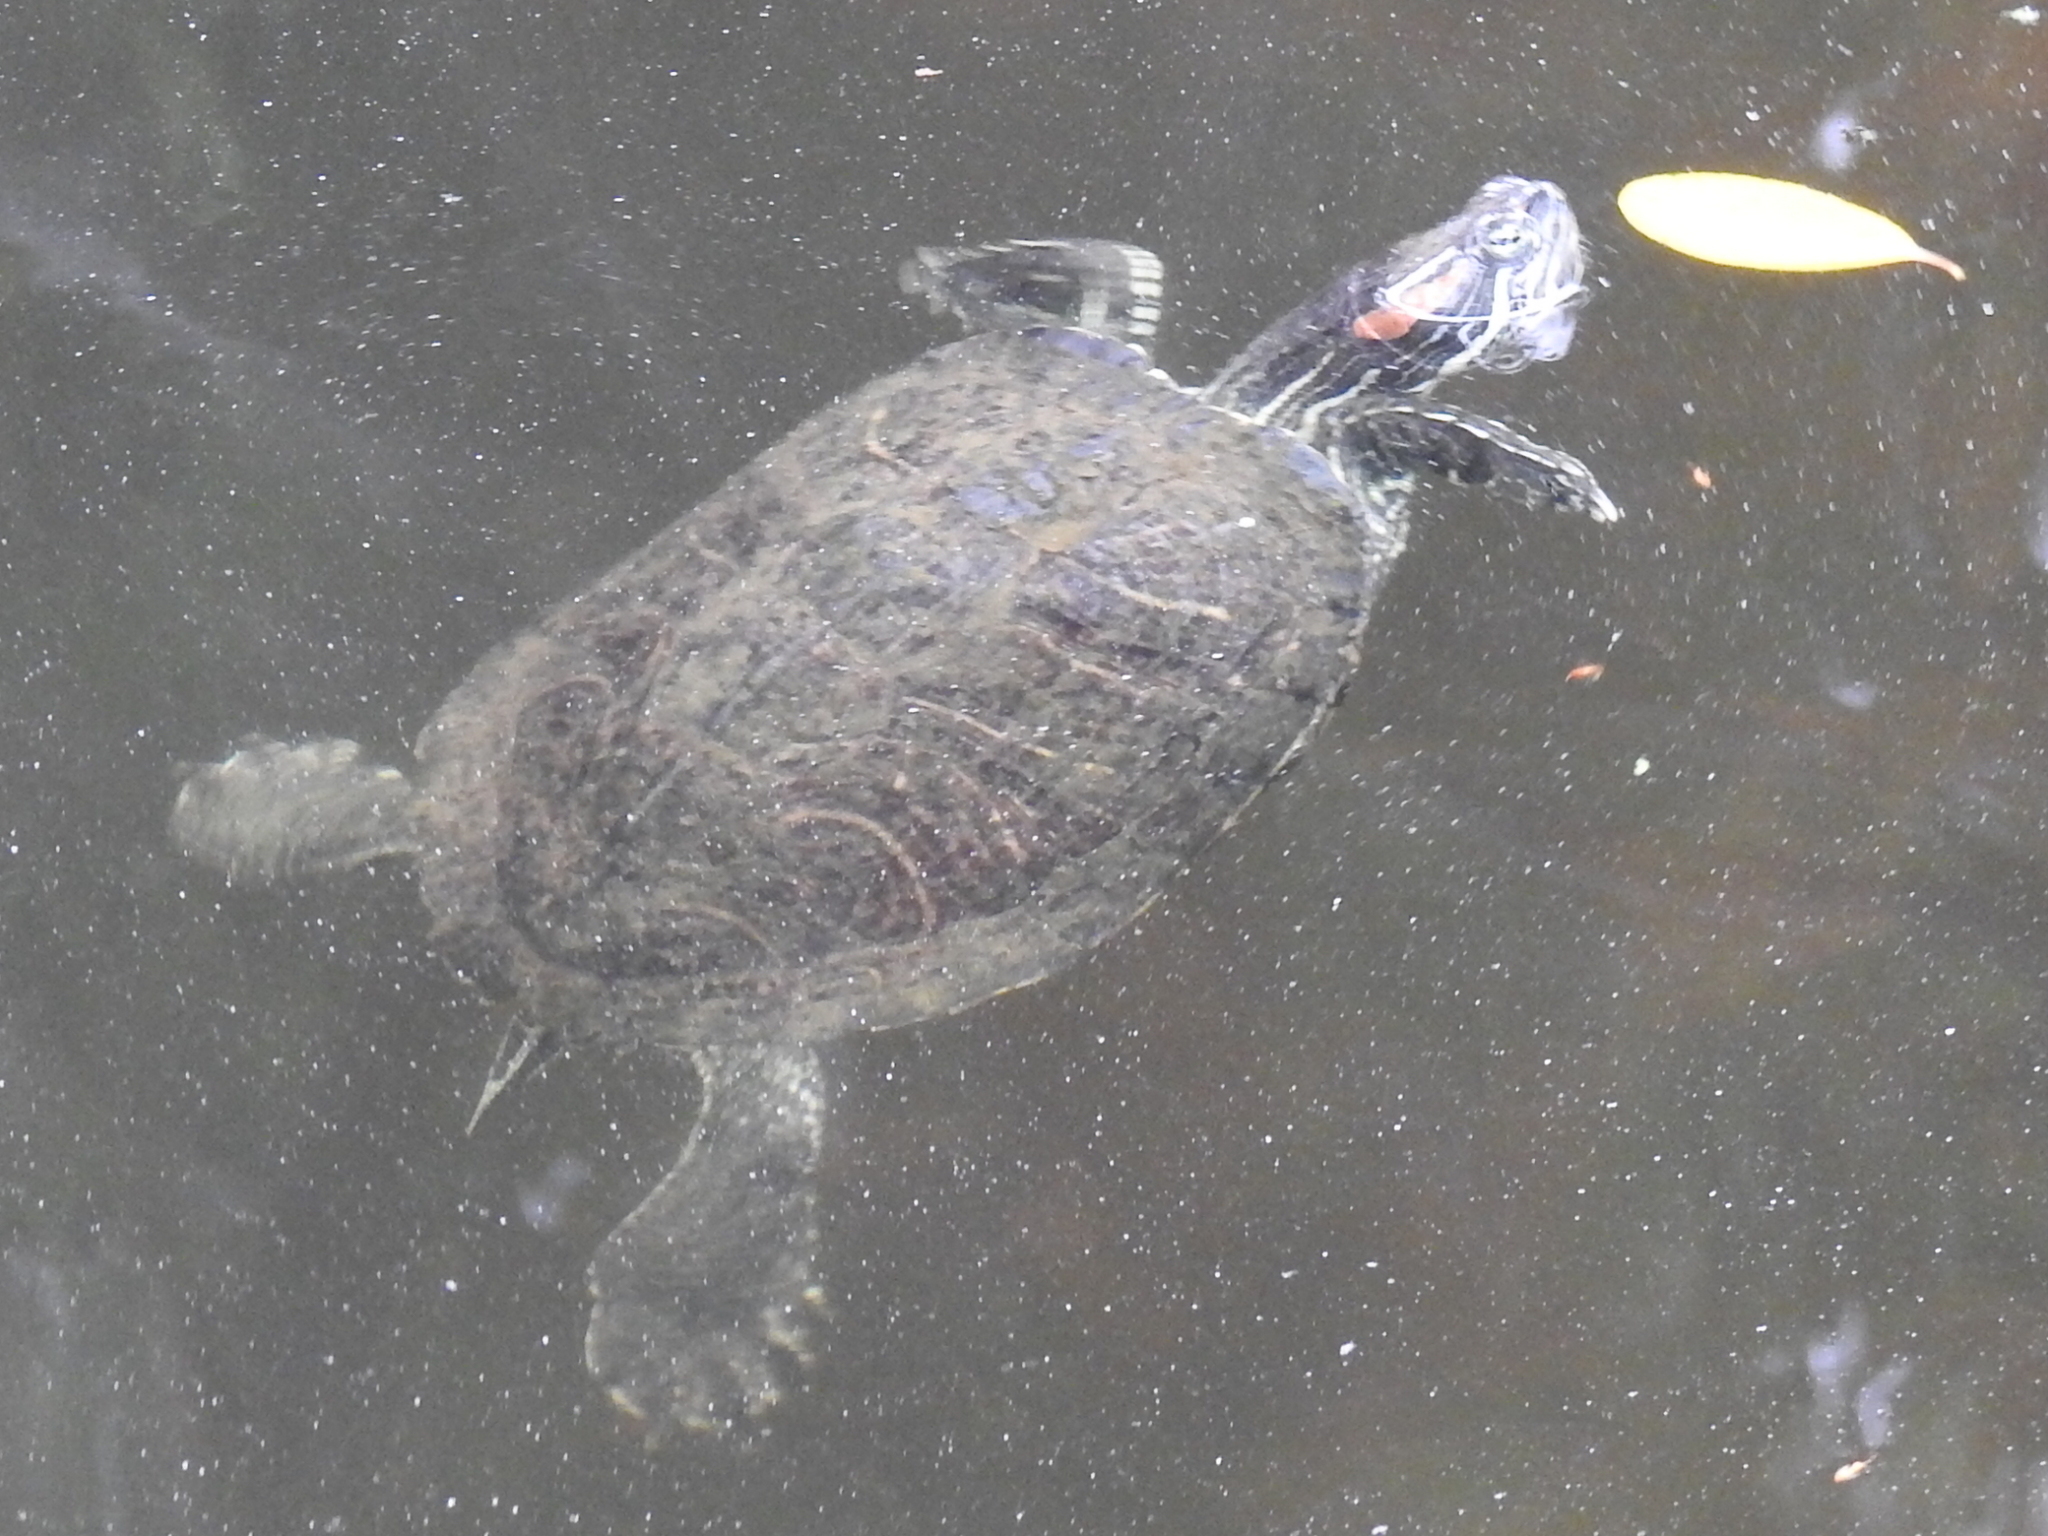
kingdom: Animalia
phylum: Chordata
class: Testudines
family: Emydidae
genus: Trachemys
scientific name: Trachemys scripta
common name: Slider
